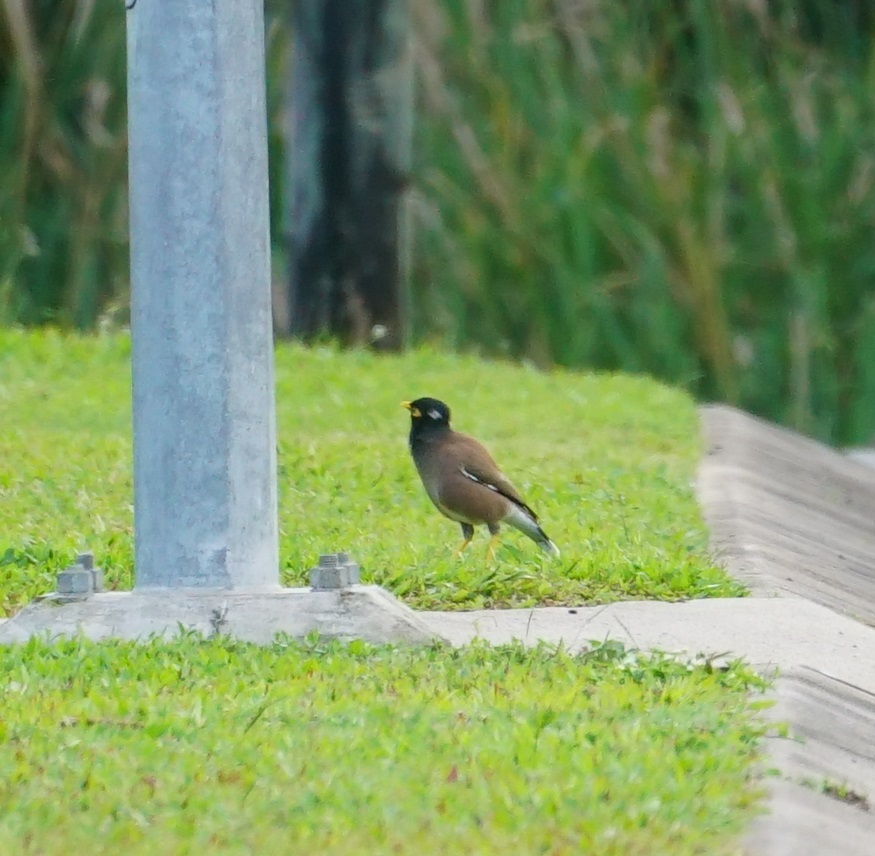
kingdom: Animalia
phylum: Chordata
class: Aves
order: Passeriformes
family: Sturnidae
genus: Acridotheres
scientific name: Acridotheres tristis
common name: Common myna
